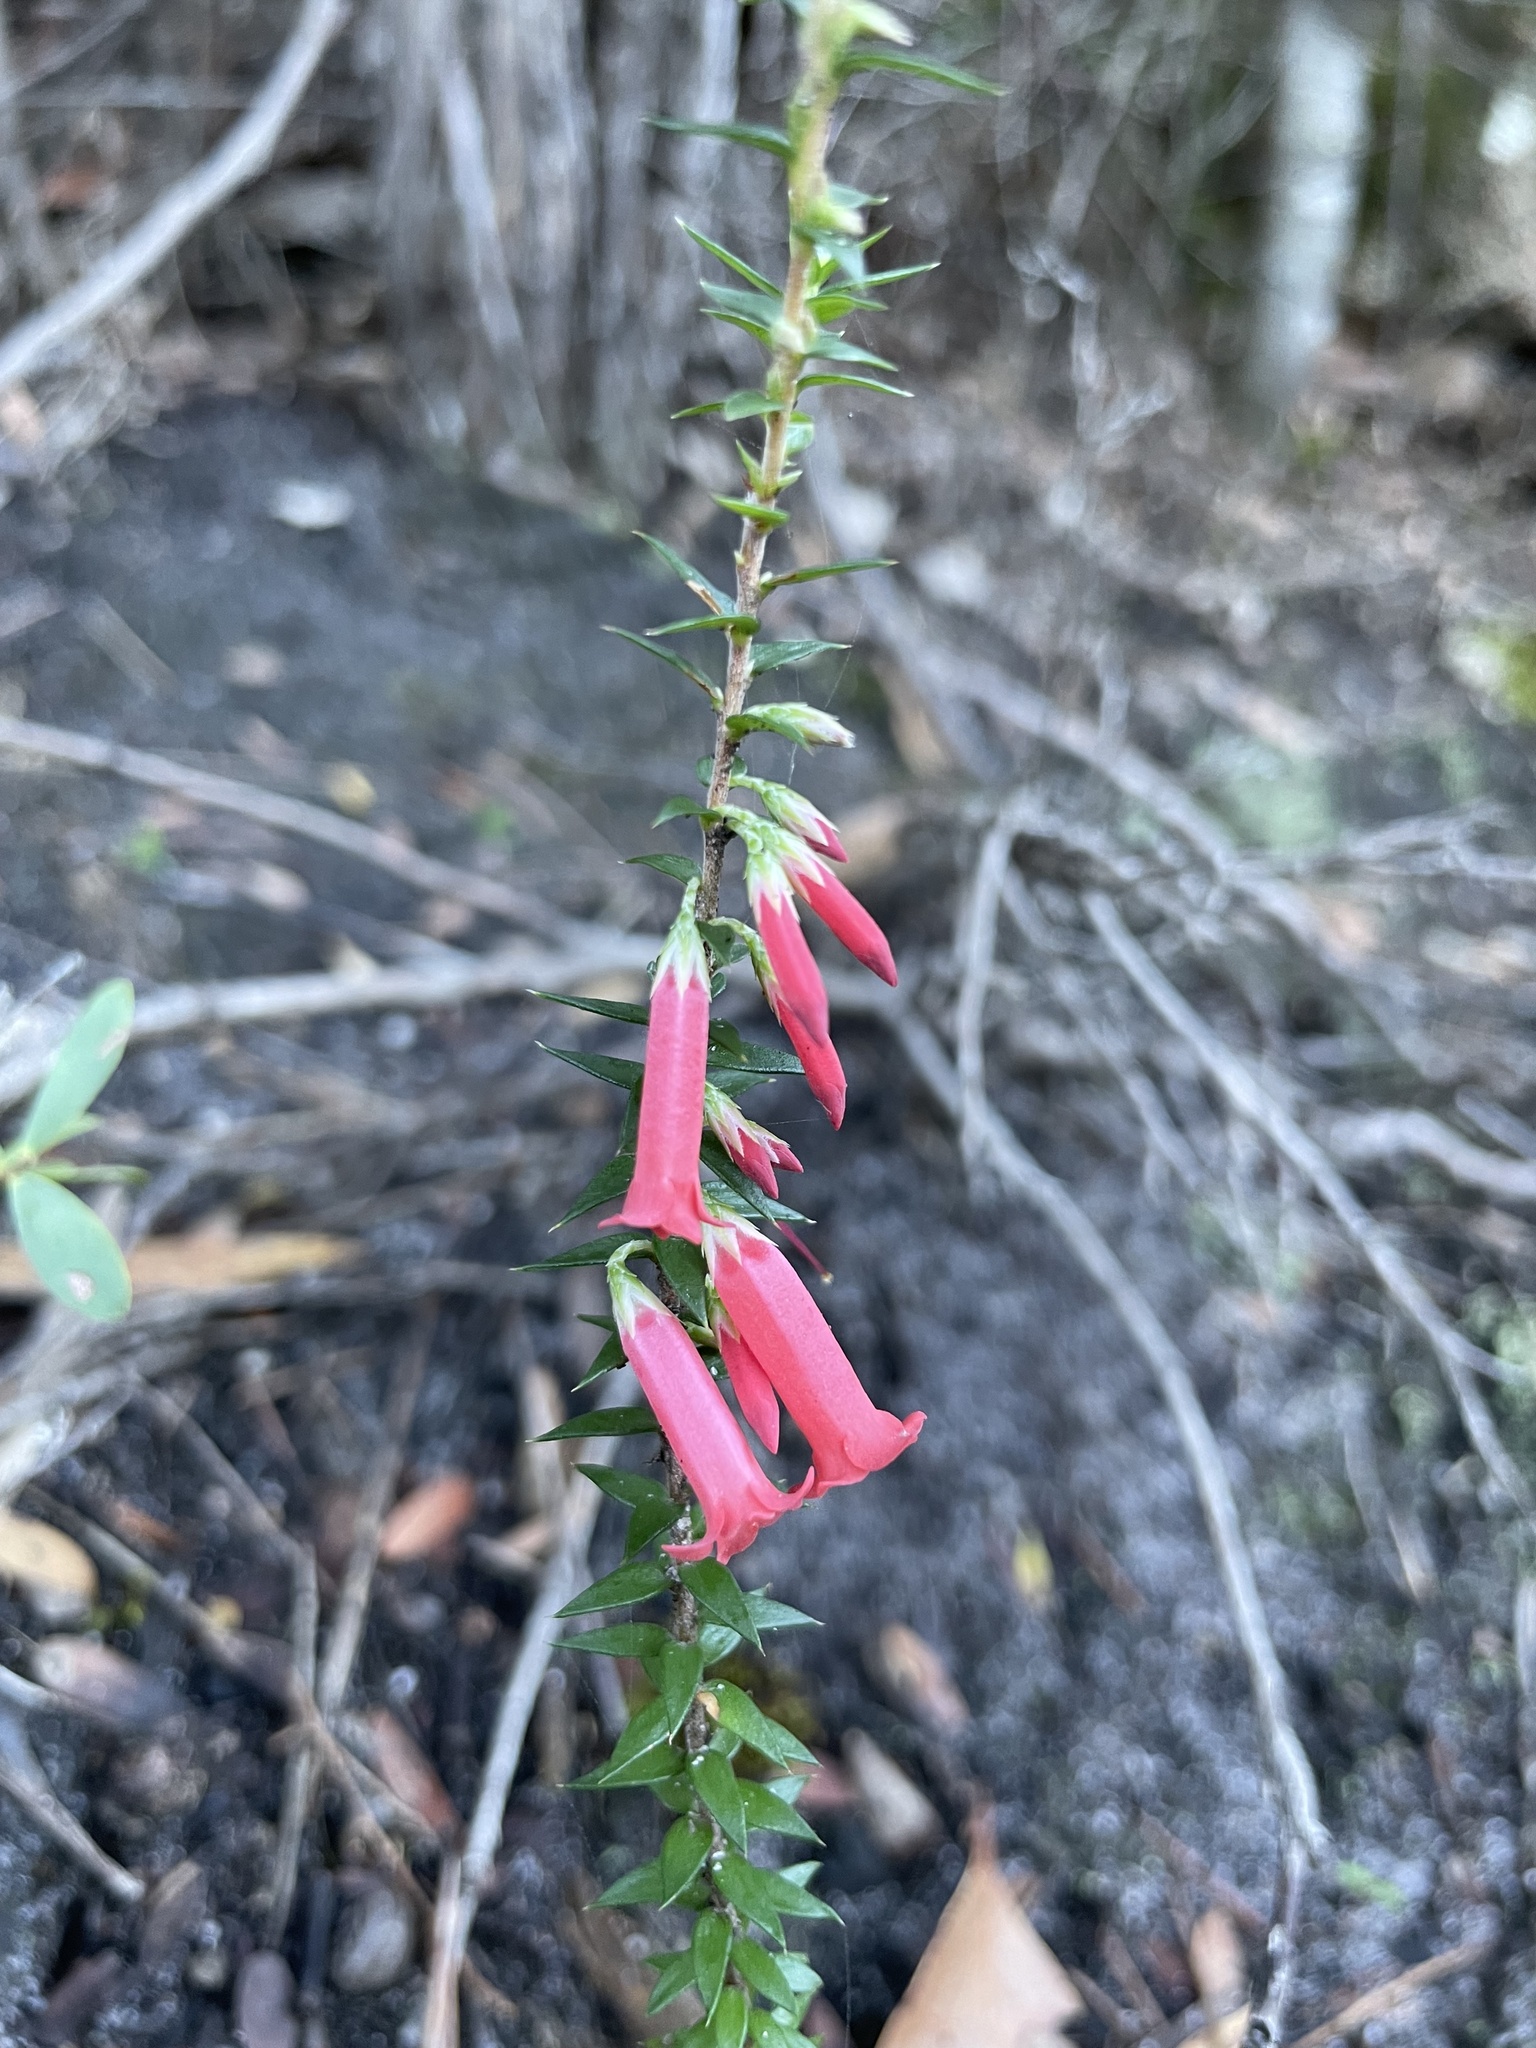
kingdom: Plantae
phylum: Tracheophyta
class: Magnoliopsida
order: Ericales
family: Ericaceae
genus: Epacris
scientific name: Epacris impressa
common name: Common-heath
